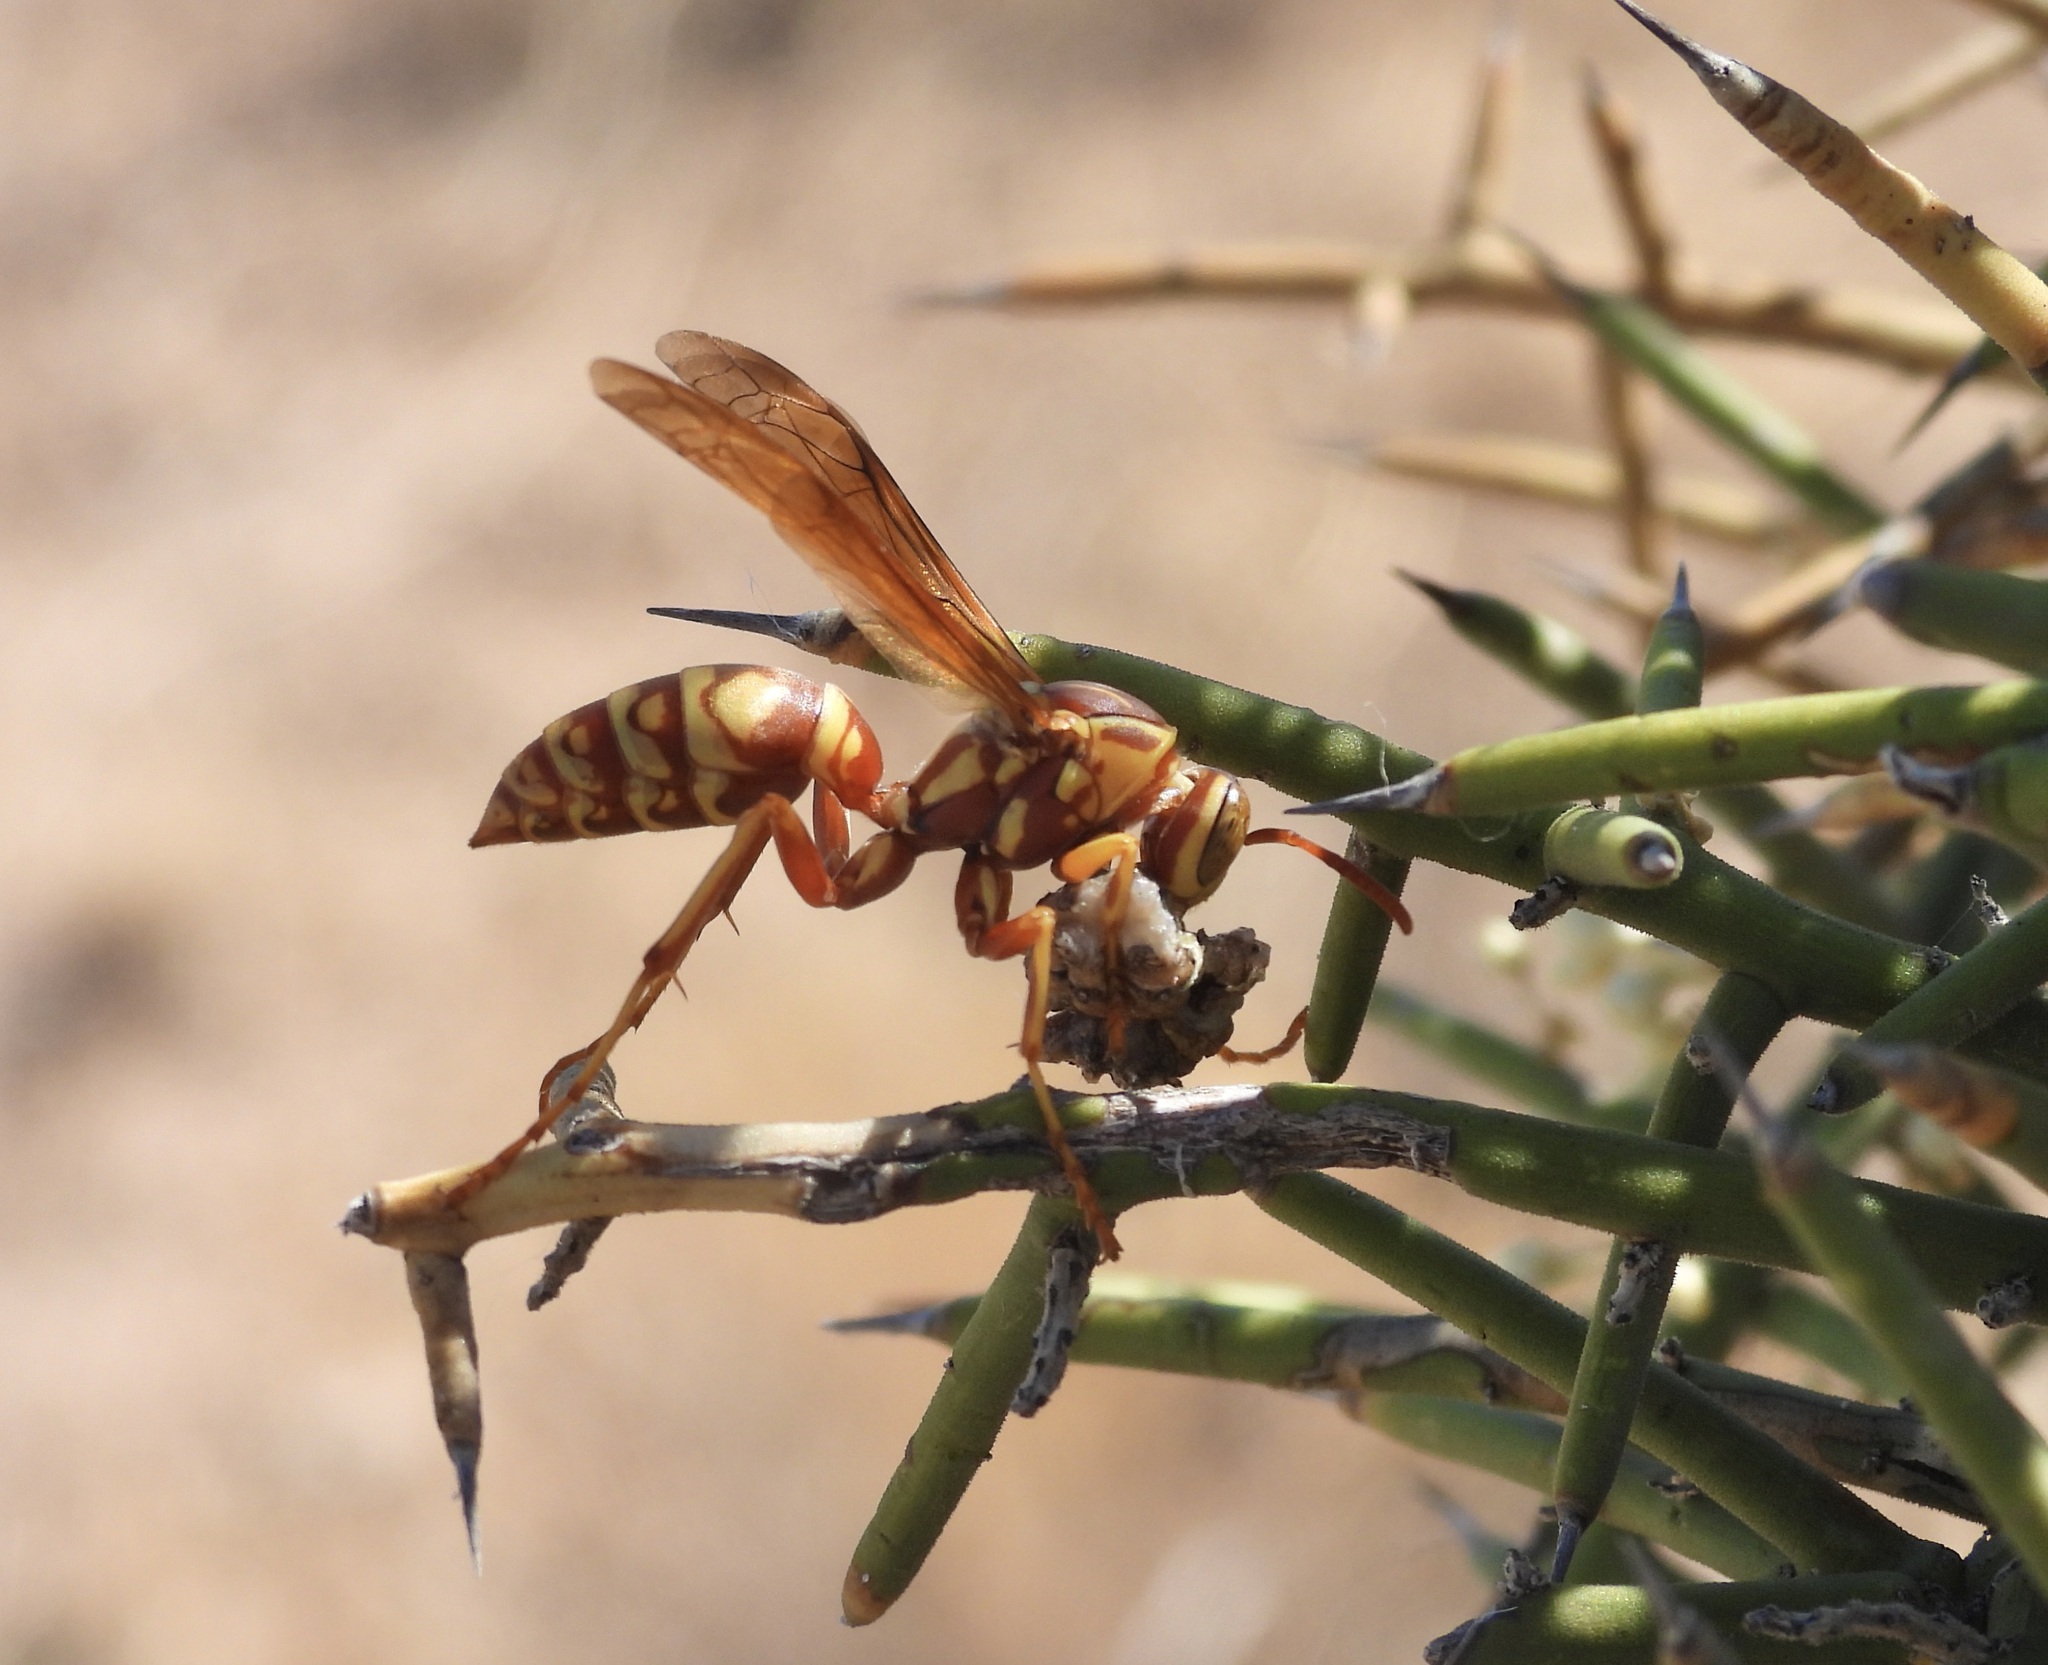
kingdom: Animalia
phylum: Arthropoda
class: Insecta
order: Hymenoptera
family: Eumenidae
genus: Polistes
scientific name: Polistes apachus
